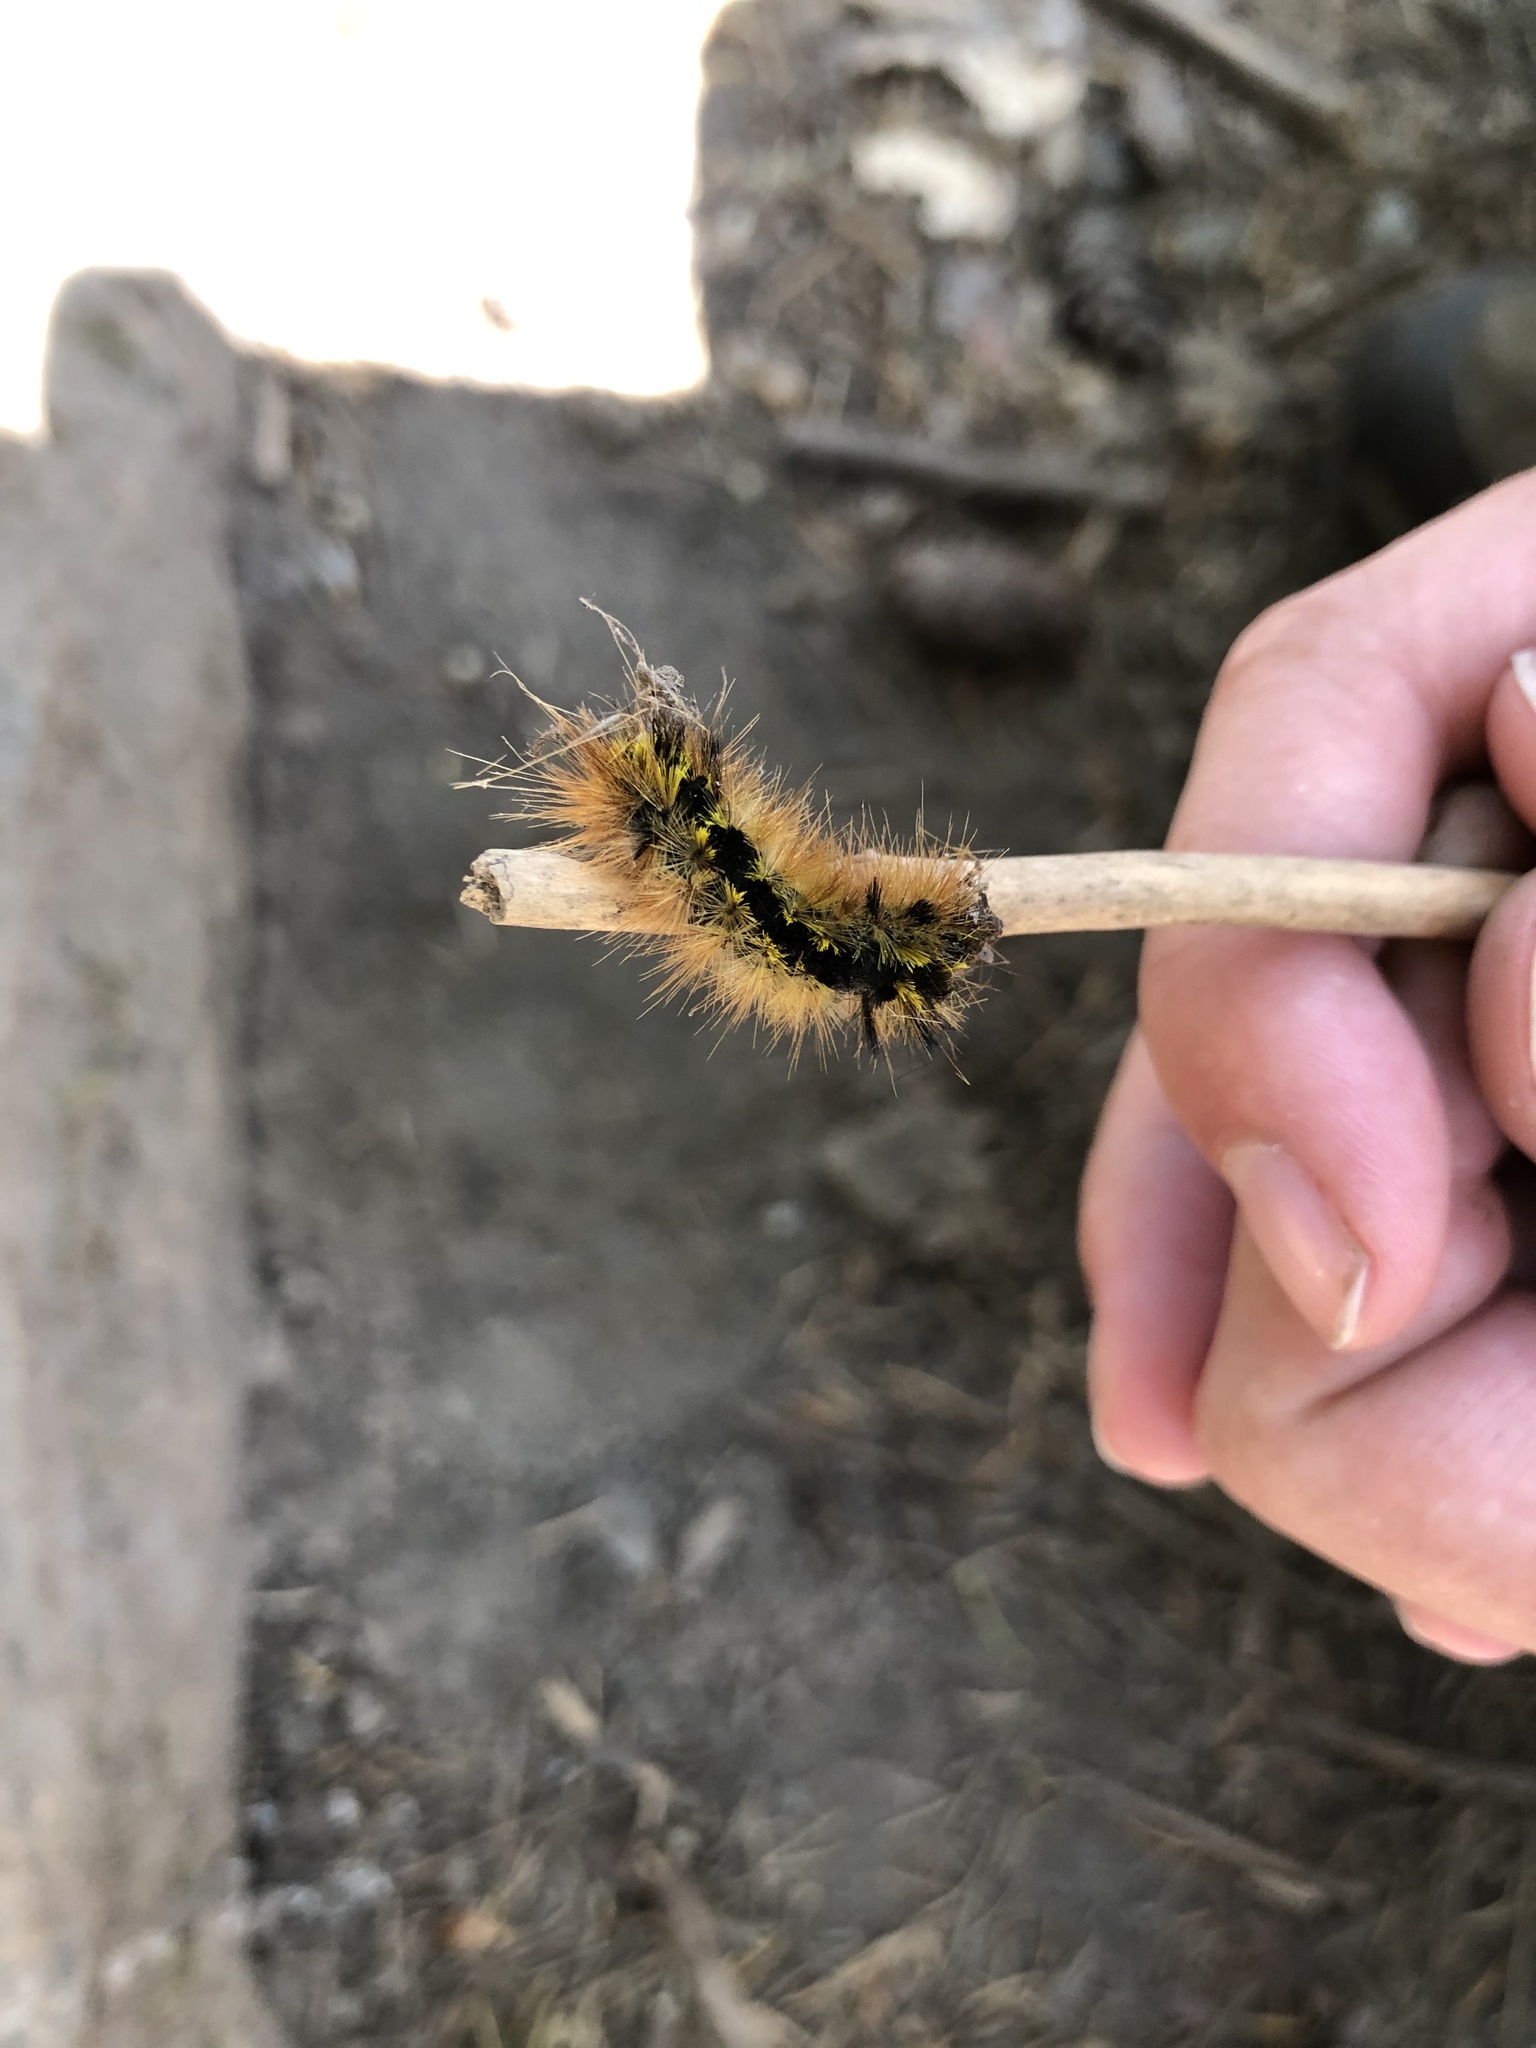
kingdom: Animalia
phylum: Arthropoda
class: Insecta
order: Lepidoptera
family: Erebidae
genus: Lophocampa
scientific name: Lophocampa argentata
